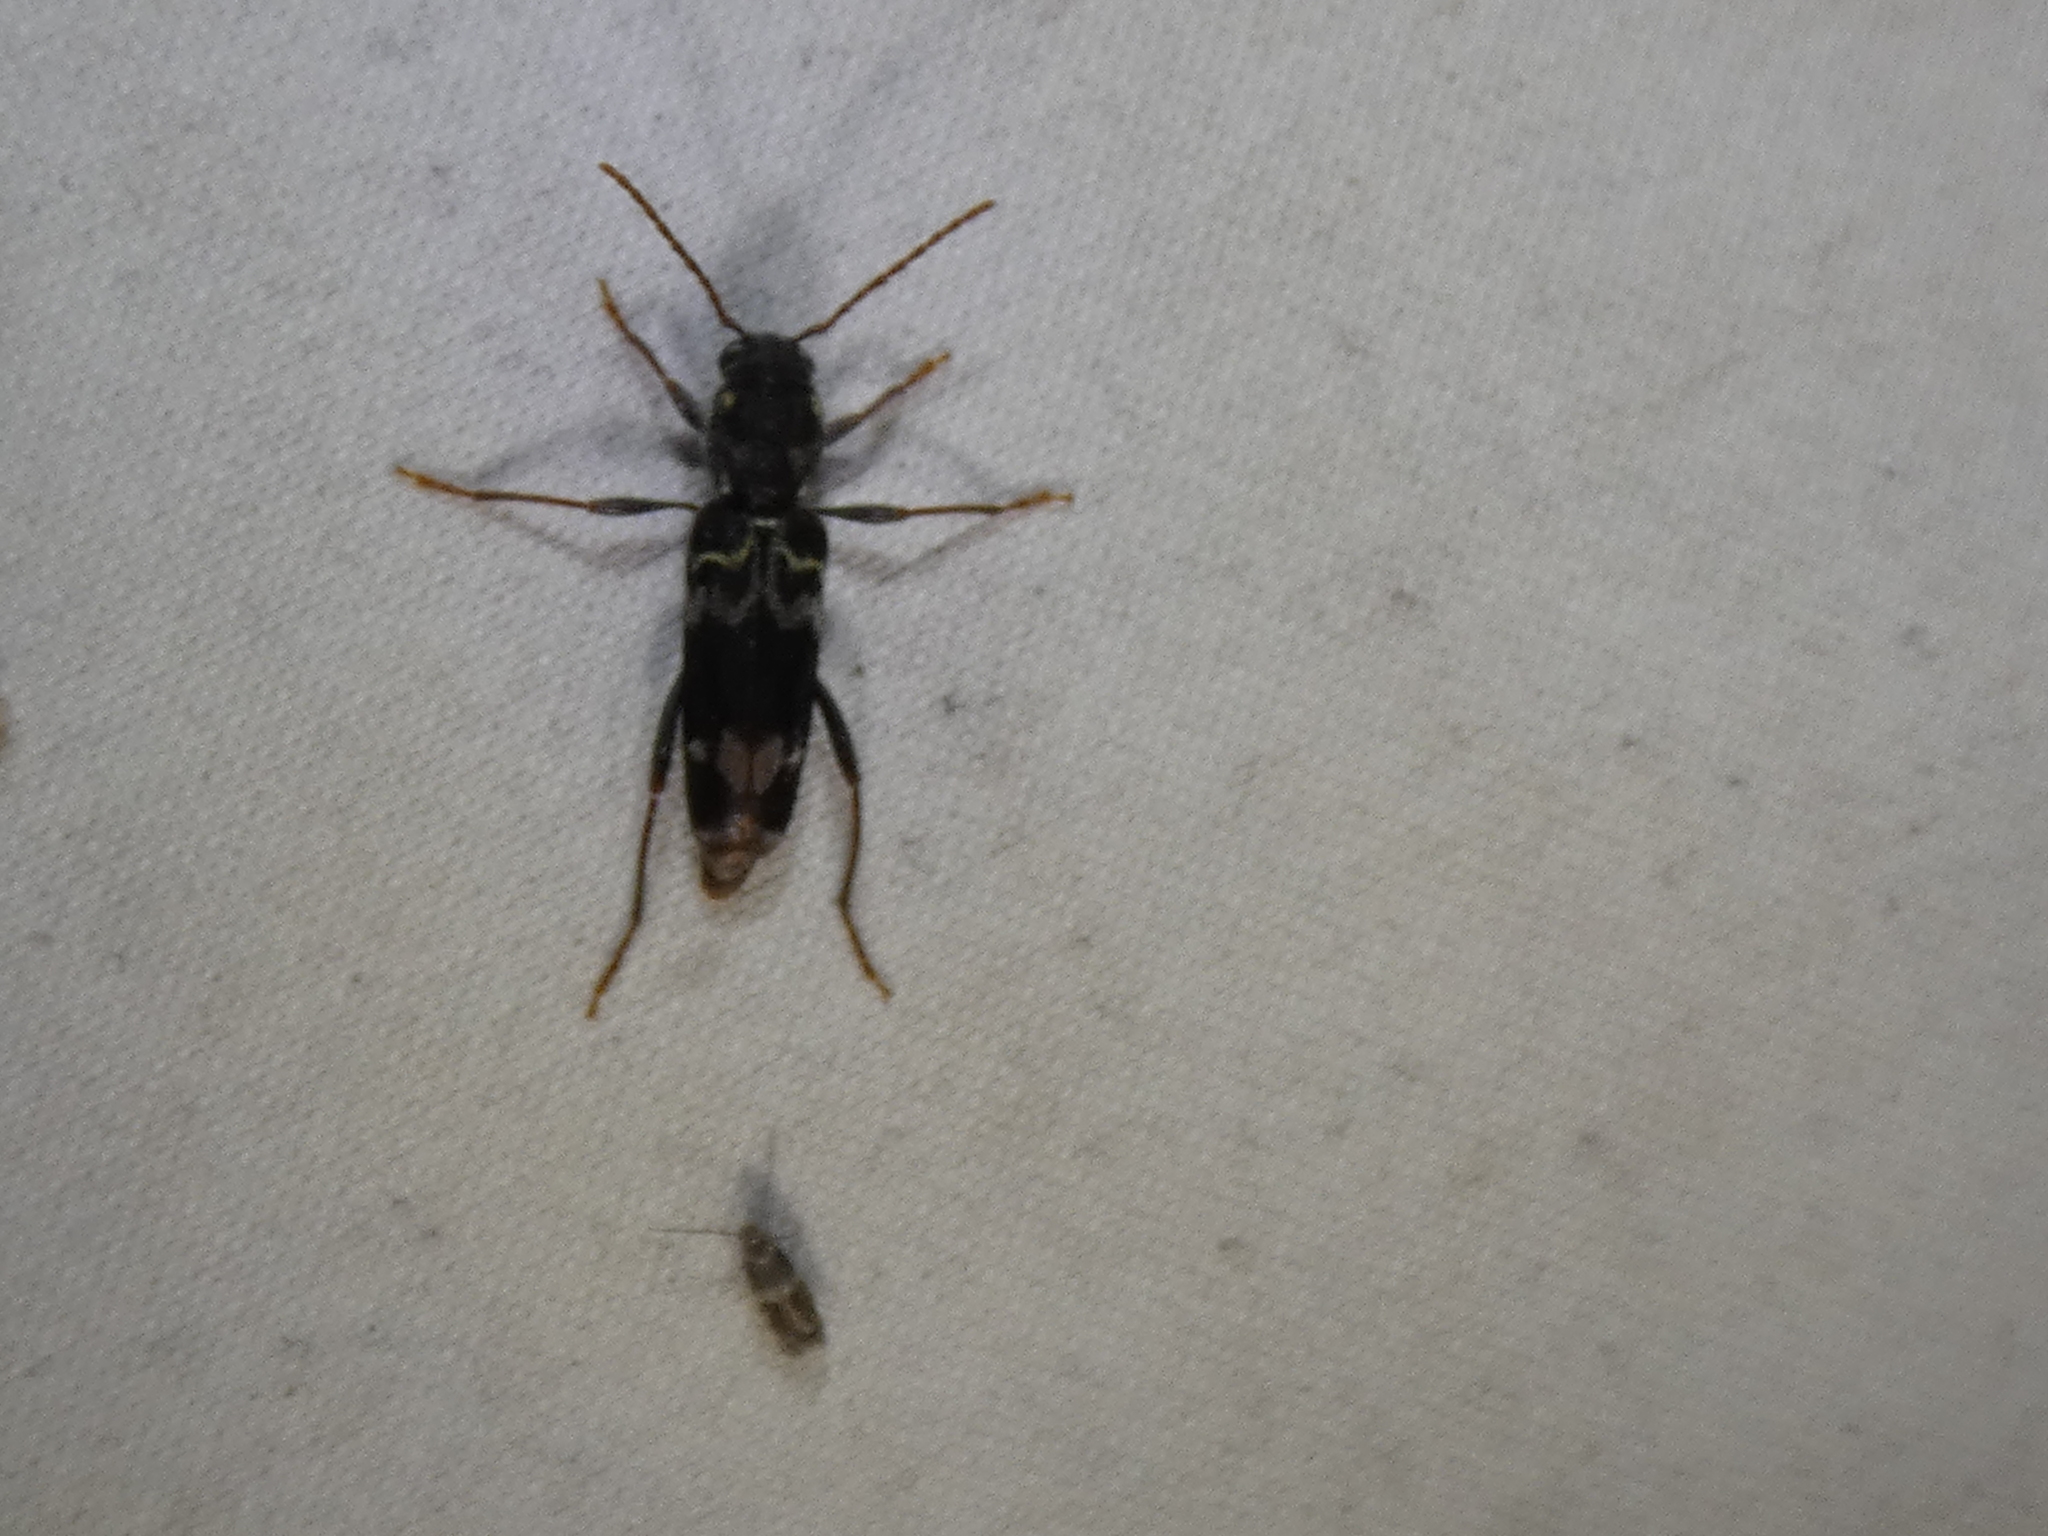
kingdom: Animalia
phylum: Arthropoda
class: Insecta
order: Coleoptera
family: Cerambycidae
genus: Xylotrechus
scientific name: Xylotrechus colonus
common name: Long-horned beetle
